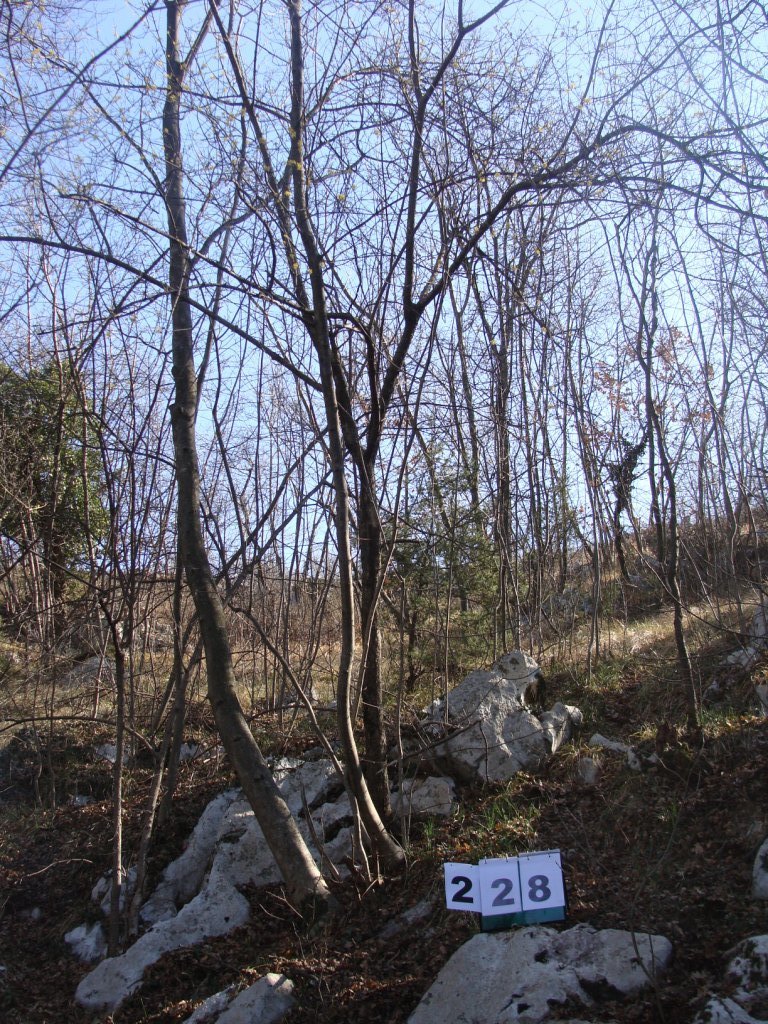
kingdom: Plantae
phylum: Tracheophyta
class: Magnoliopsida
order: Cornales
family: Cornaceae
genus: Cornus
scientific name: Cornus mas
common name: Cornelian-cherry
